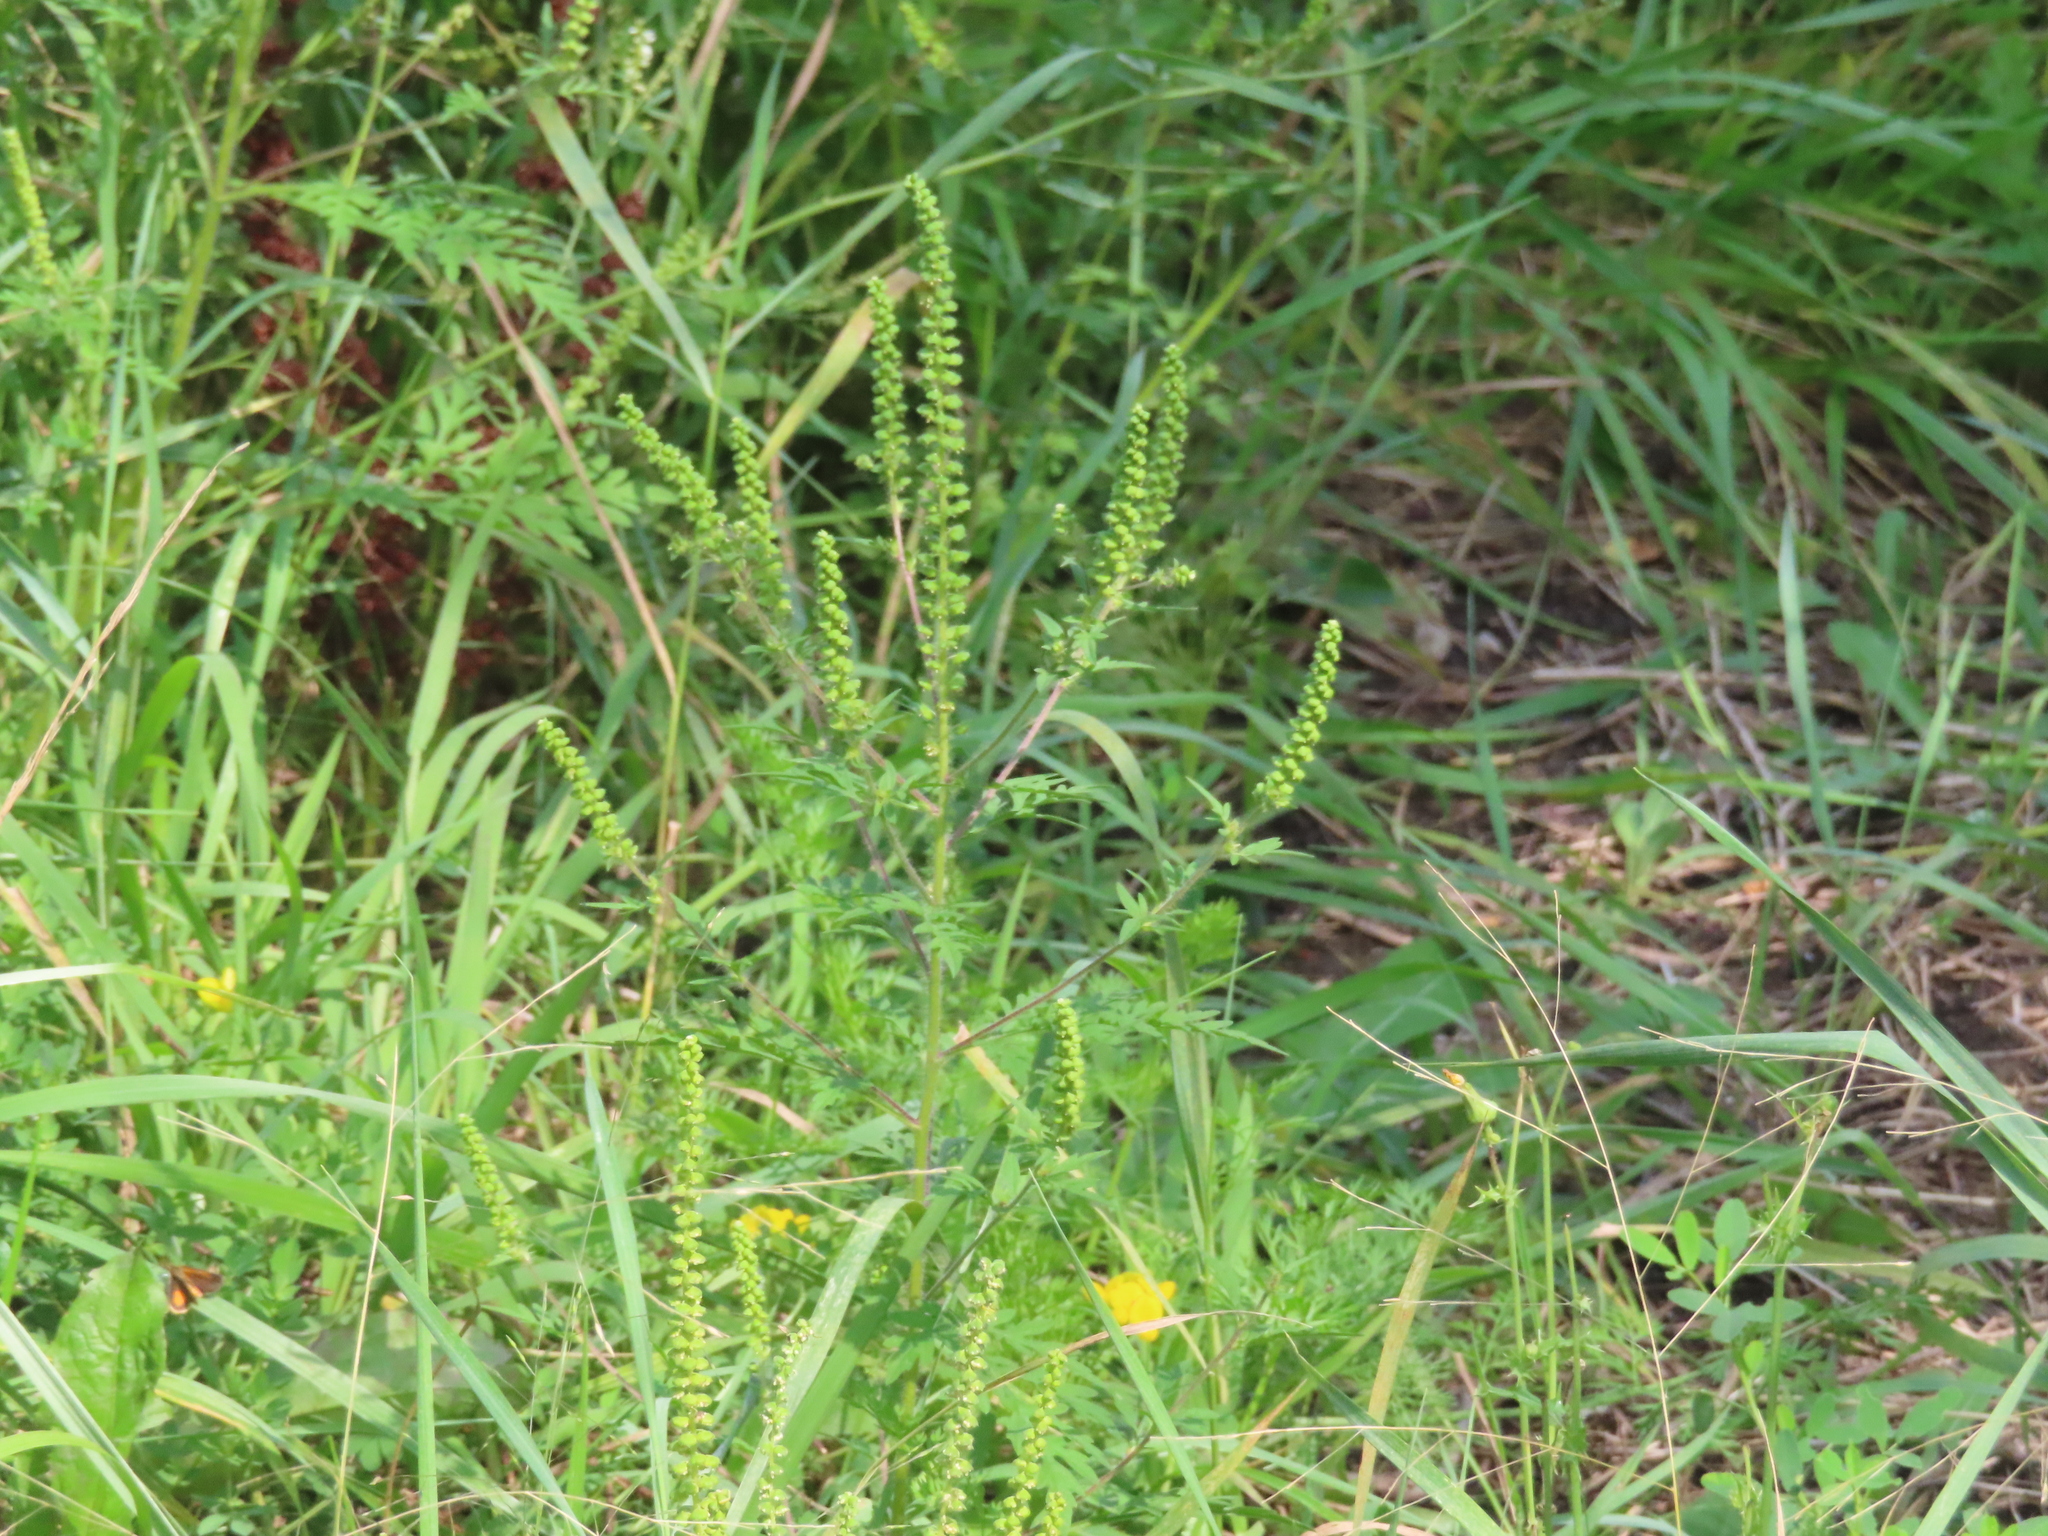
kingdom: Plantae
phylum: Tracheophyta
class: Magnoliopsida
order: Asterales
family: Asteraceae
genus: Ambrosia
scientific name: Ambrosia artemisiifolia
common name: Annual ragweed
